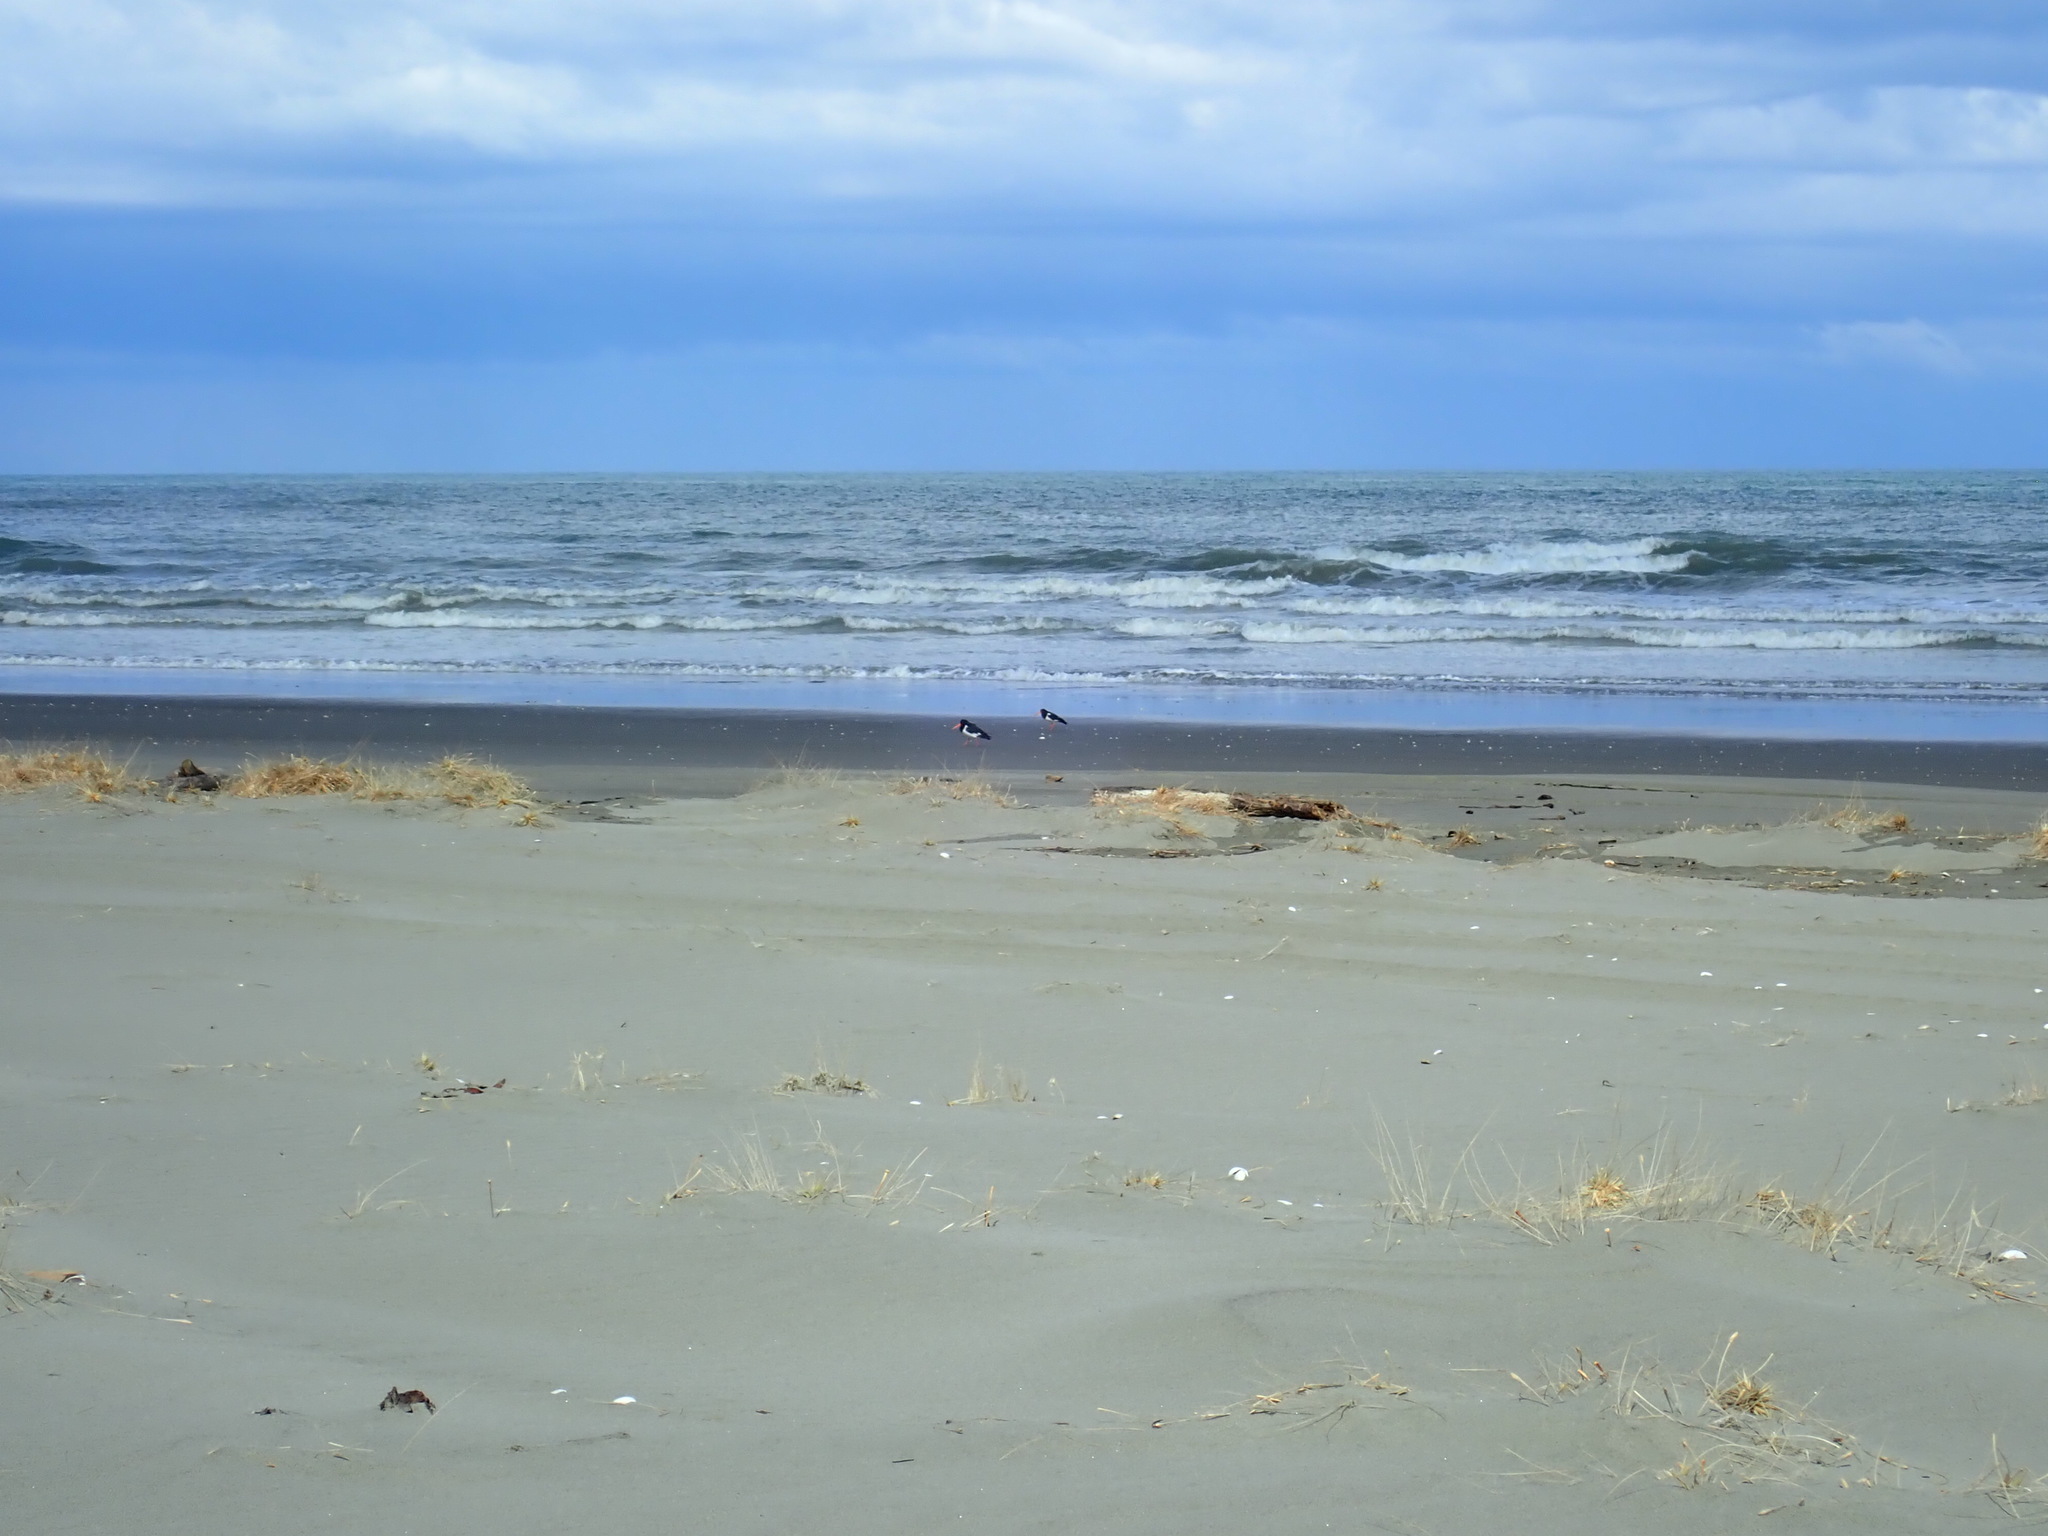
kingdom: Animalia
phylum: Chordata
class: Aves
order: Charadriiformes
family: Haematopodidae
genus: Haematopus
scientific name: Haematopus finschi
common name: South island oystercatcher
